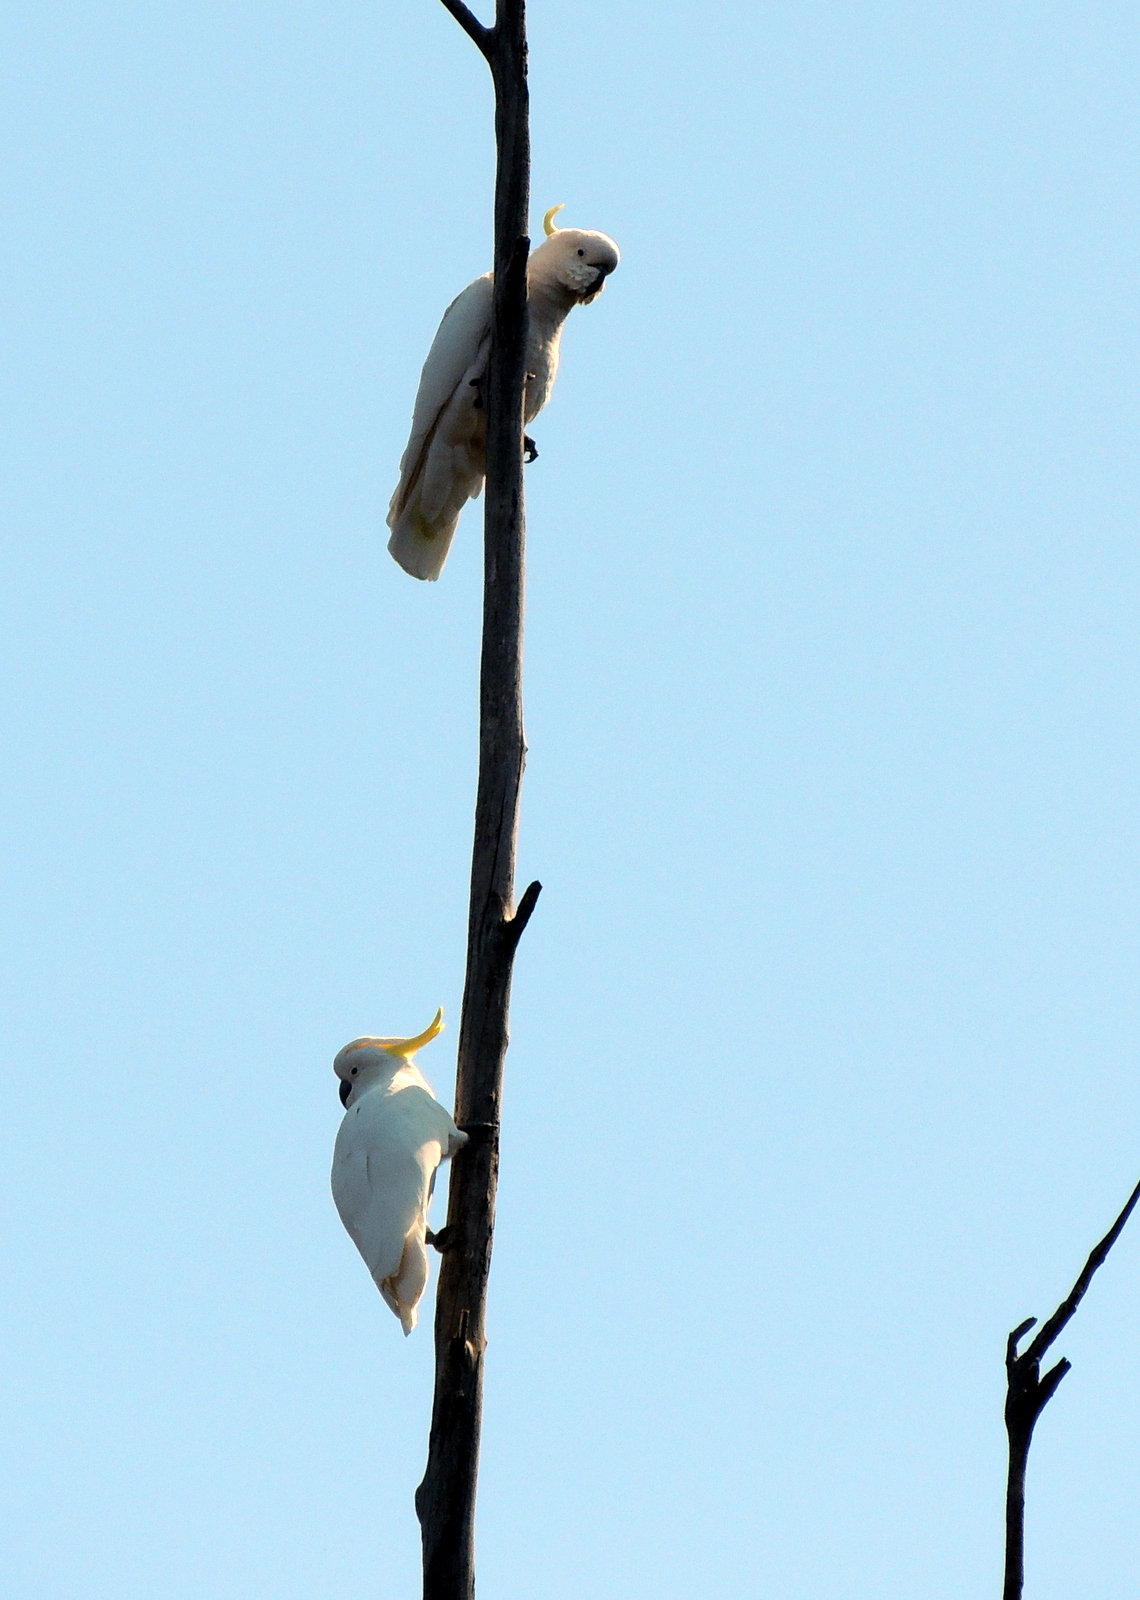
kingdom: Animalia
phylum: Chordata
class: Aves
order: Psittaciformes
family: Psittacidae
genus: Cacatua
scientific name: Cacatua galerita
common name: Sulphur-crested cockatoo
